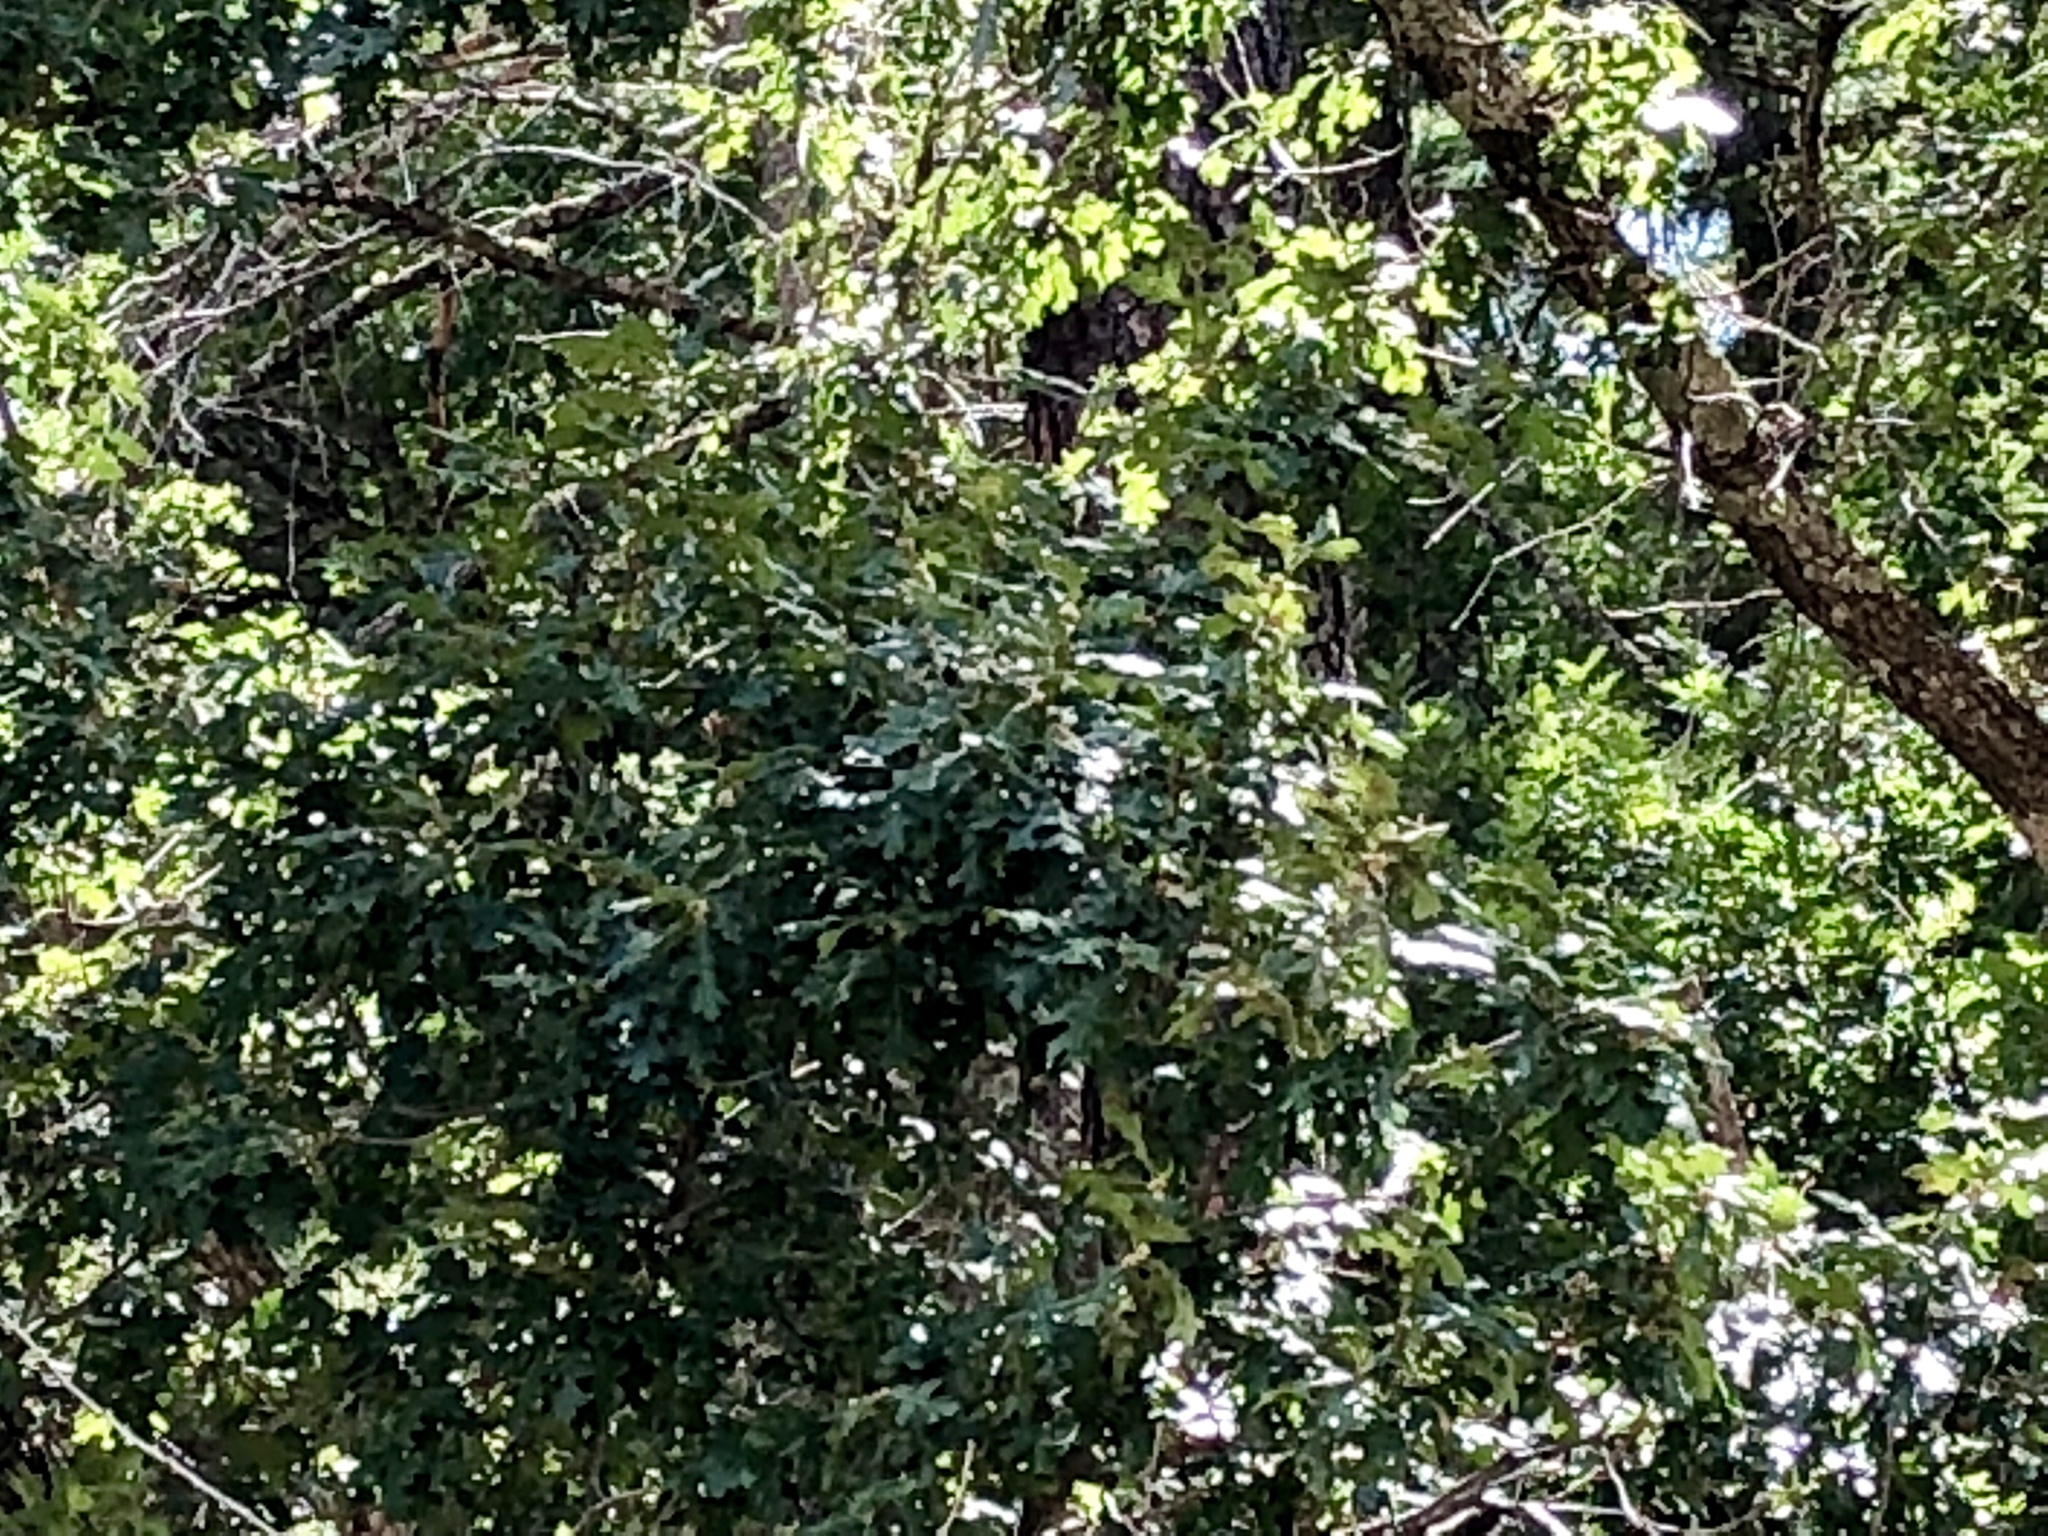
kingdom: Plantae
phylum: Tracheophyta
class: Magnoliopsida
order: Fagales
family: Fagaceae
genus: Quercus
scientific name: Quercus gambelii
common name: Gambel oak
